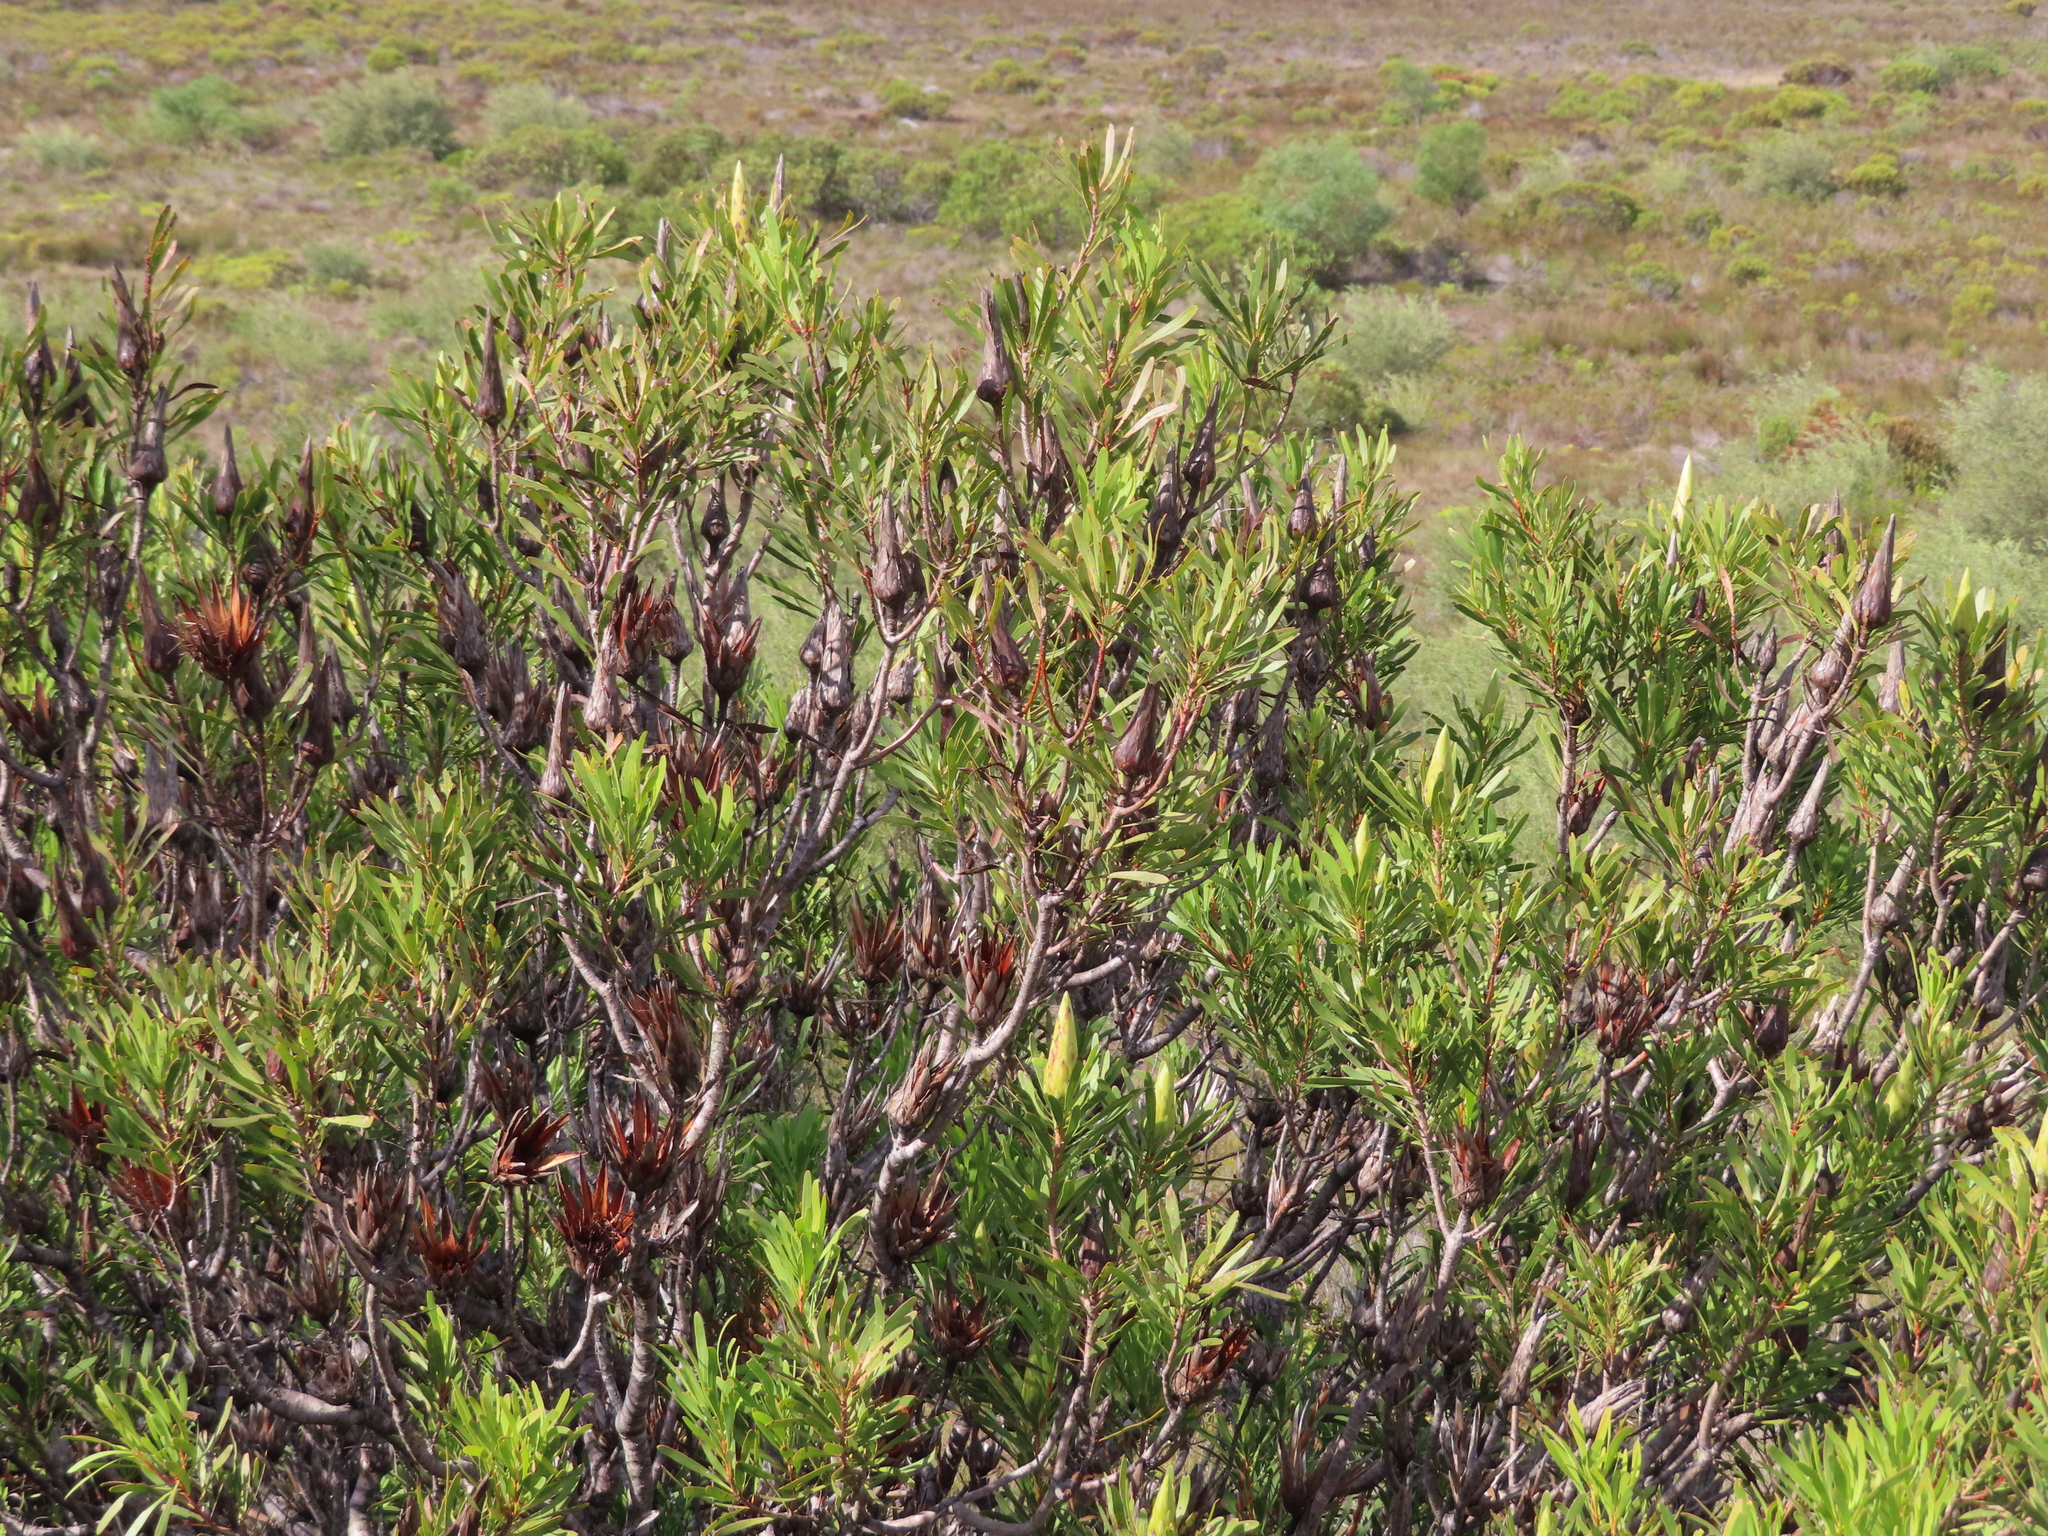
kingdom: Plantae
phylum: Tracheophyta
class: Magnoliopsida
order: Proteales
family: Proteaceae
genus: Protea
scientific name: Protea repens
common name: Sugarbush
